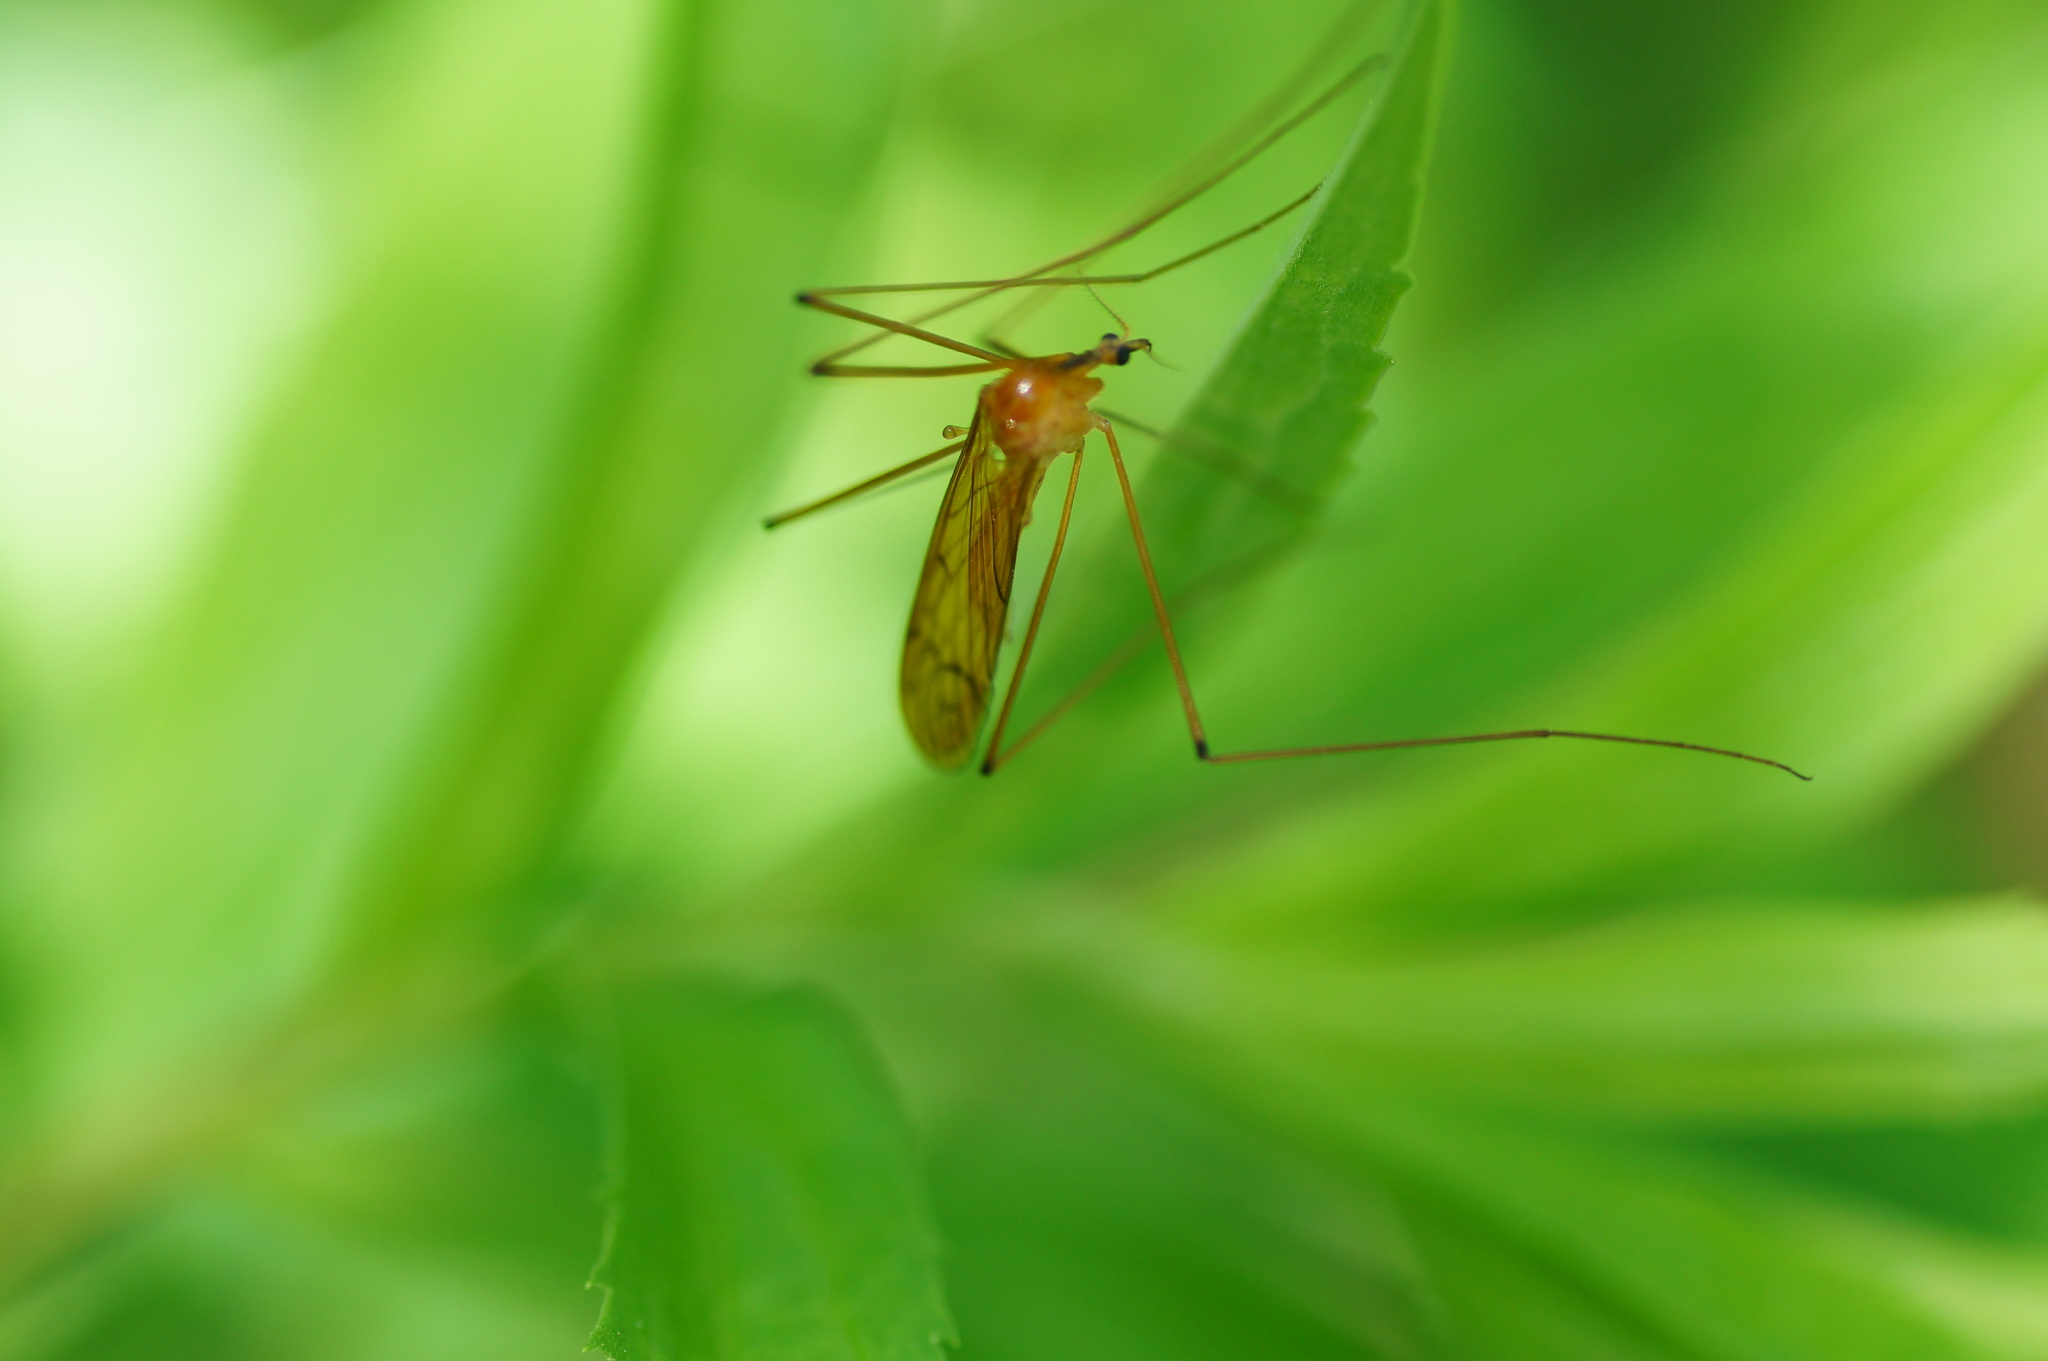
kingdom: Animalia
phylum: Arthropoda
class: Insecta
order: Diptera
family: Limoniidae
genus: Limonia
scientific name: Limonia
